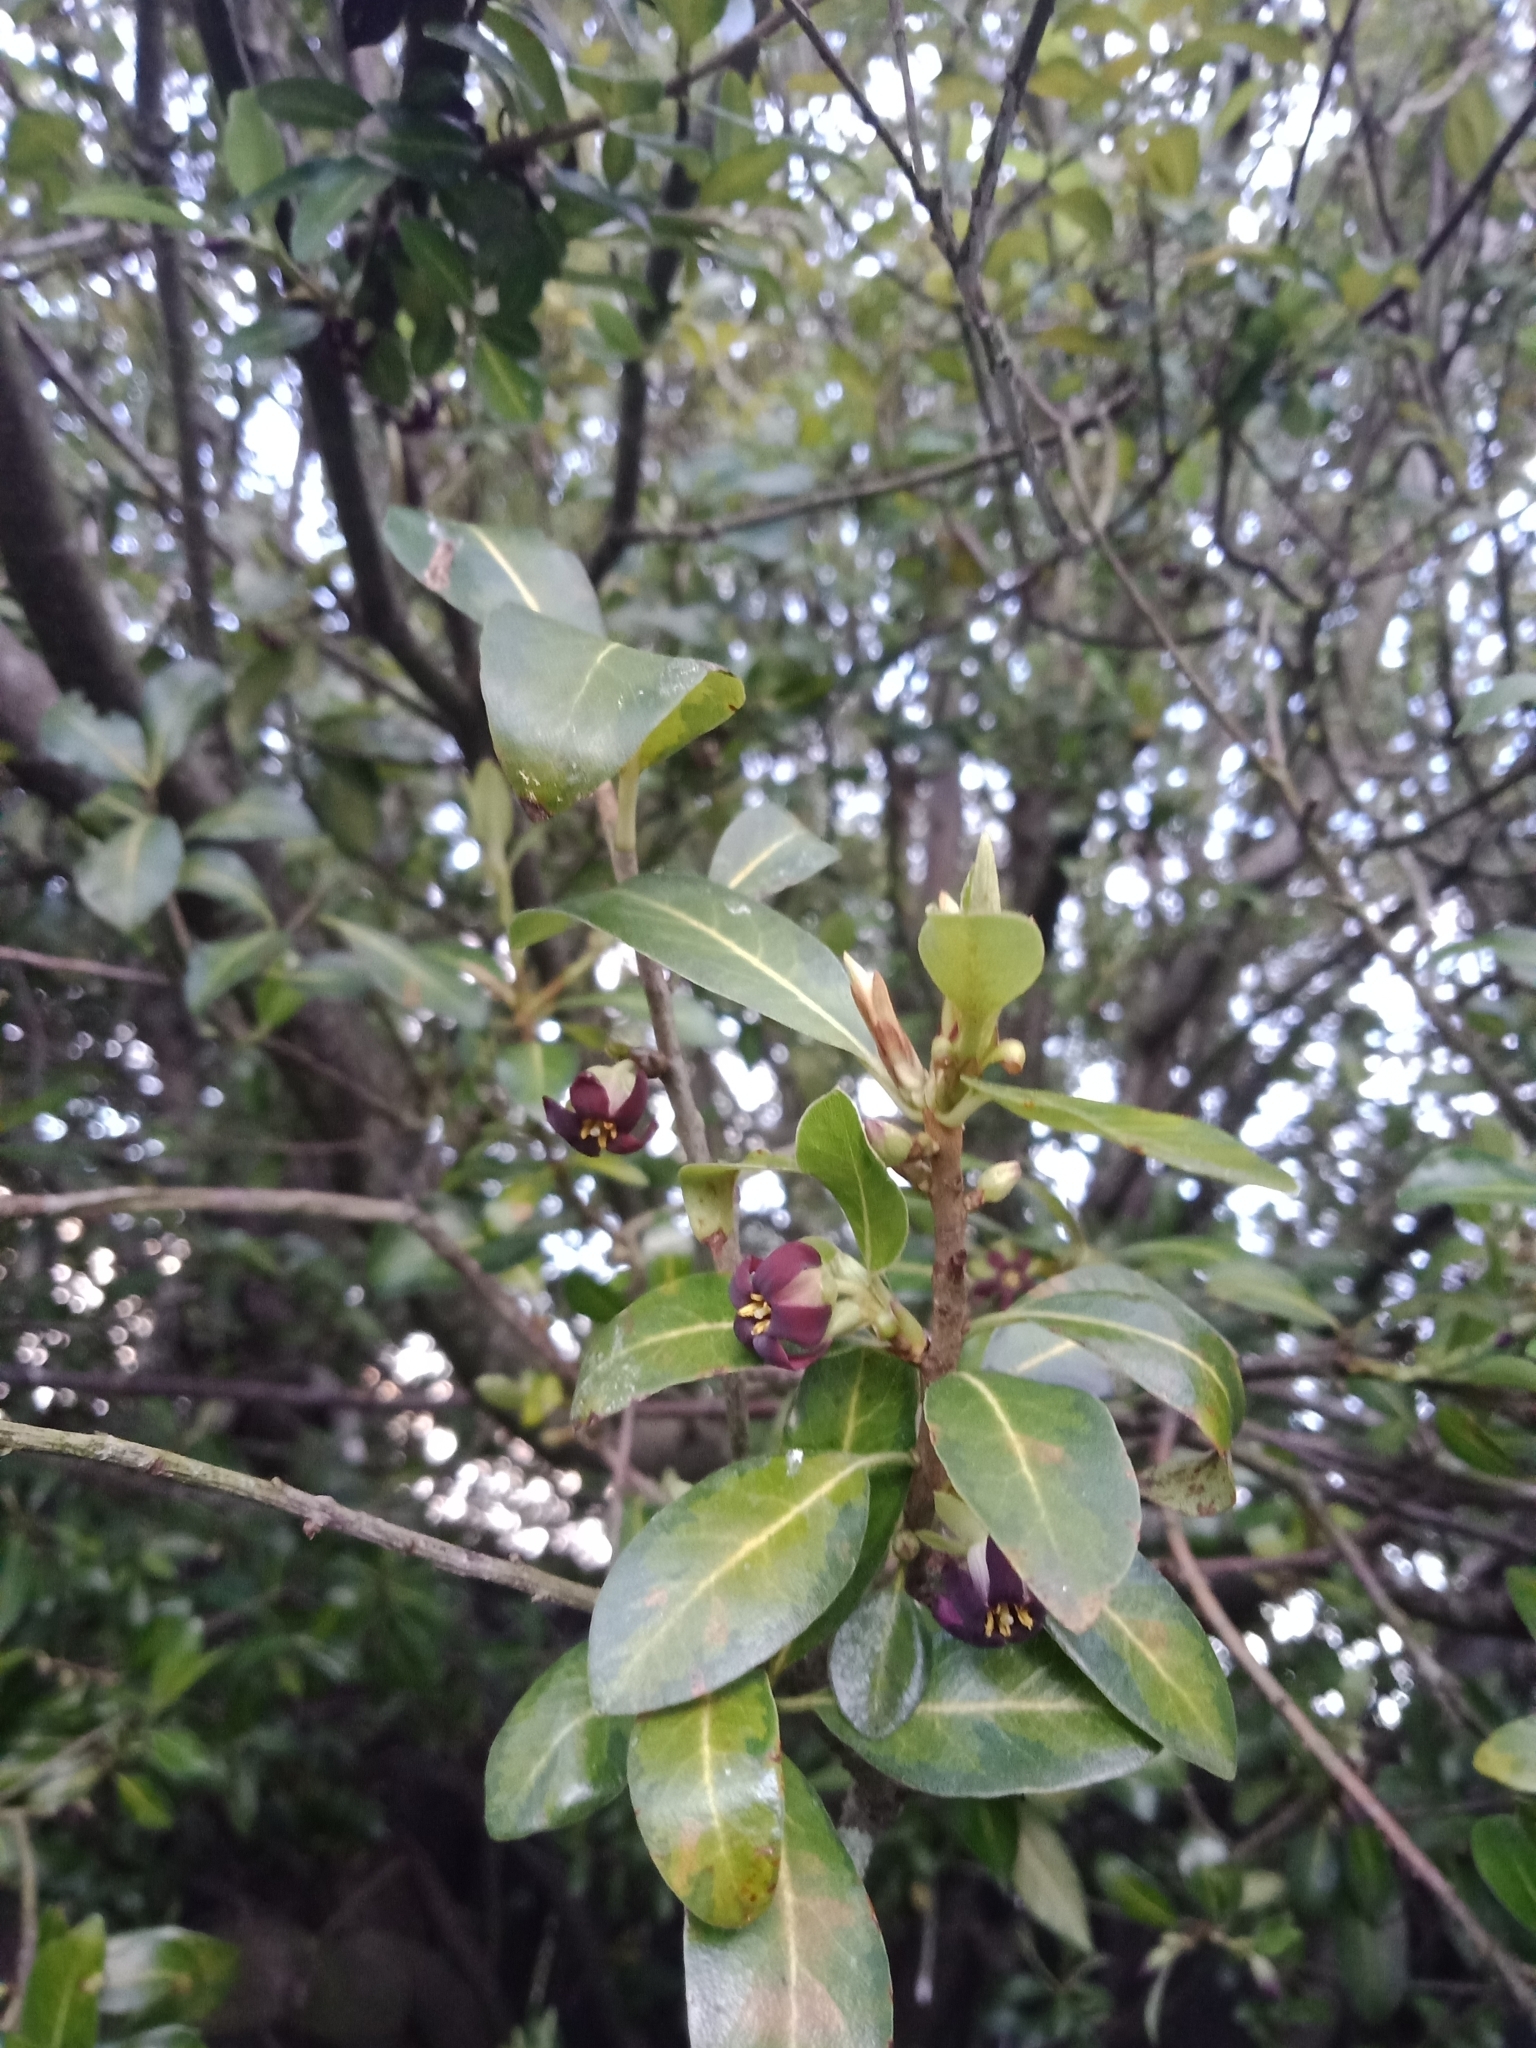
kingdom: Plantae
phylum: Tracheophyta
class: Magnoliopsida
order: Apiales
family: Pittosporaceae
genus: Pittosporum
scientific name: Pittosporum tenuifolium
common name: Kohuhu
